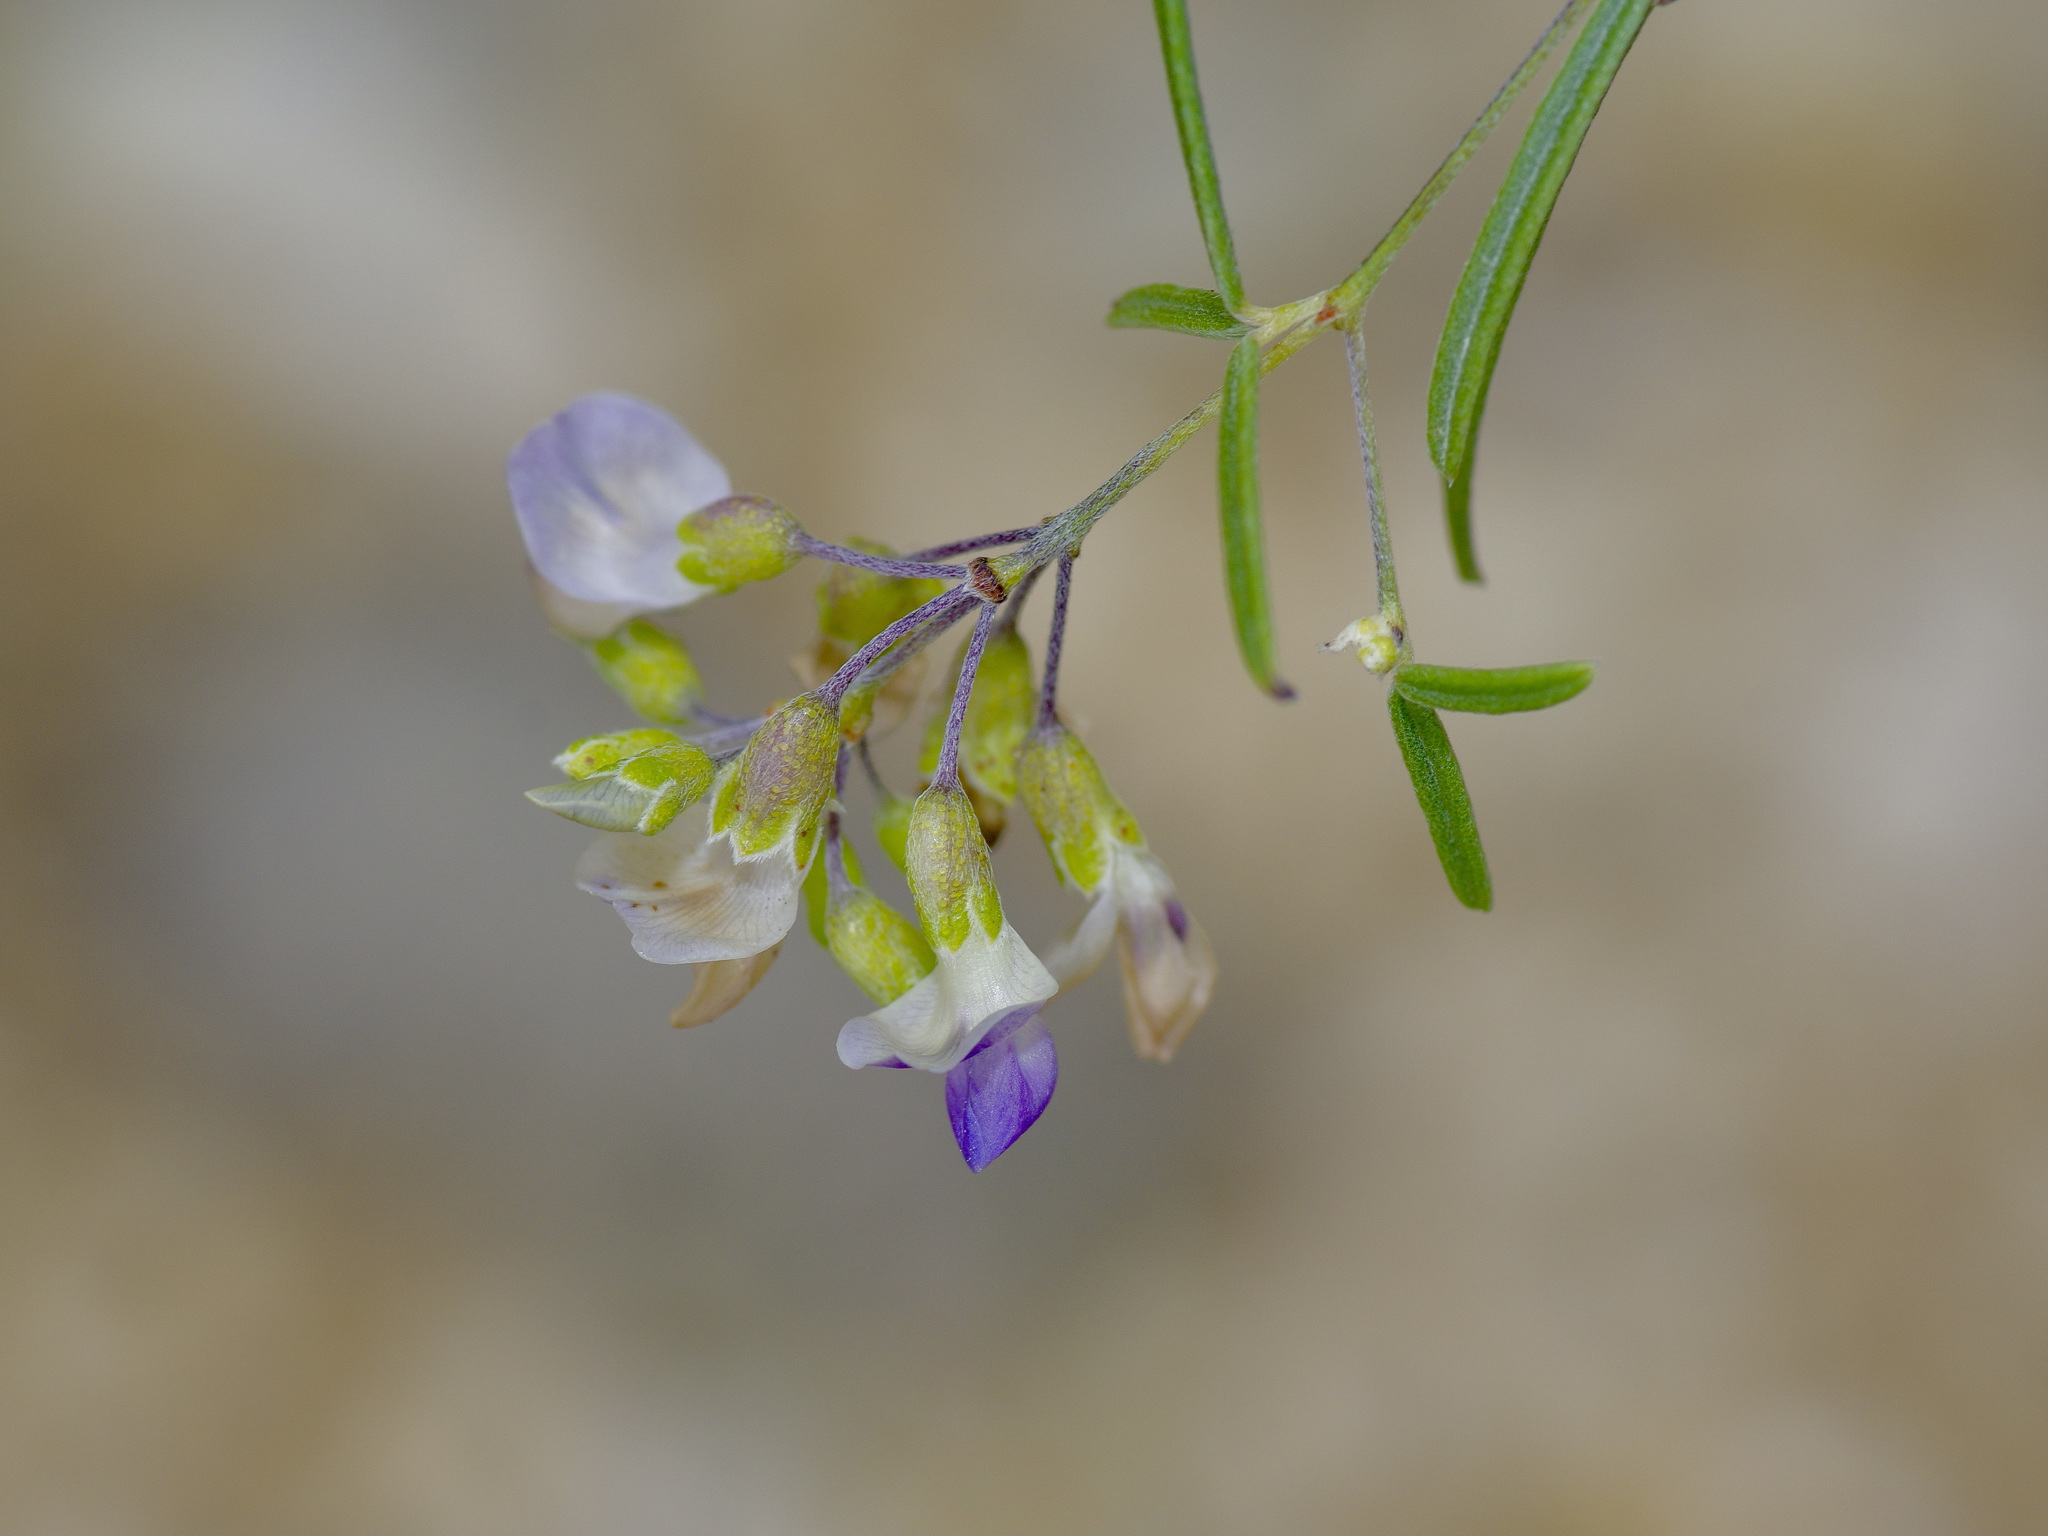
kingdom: Plantae
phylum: Tracheophyta
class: Magnoliopsida
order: Fabales
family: Fabaceae
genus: Pediomelum
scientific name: Pediomelum linearifolium
